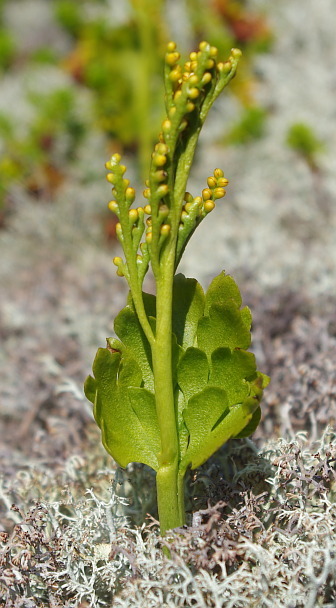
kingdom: Plantae
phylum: Tracheophyta
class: Polypodiopsida
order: Ophioglossales
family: Ophioglossaceae
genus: Botrychium
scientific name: Botrychium boreale
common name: Boreal moonwort
